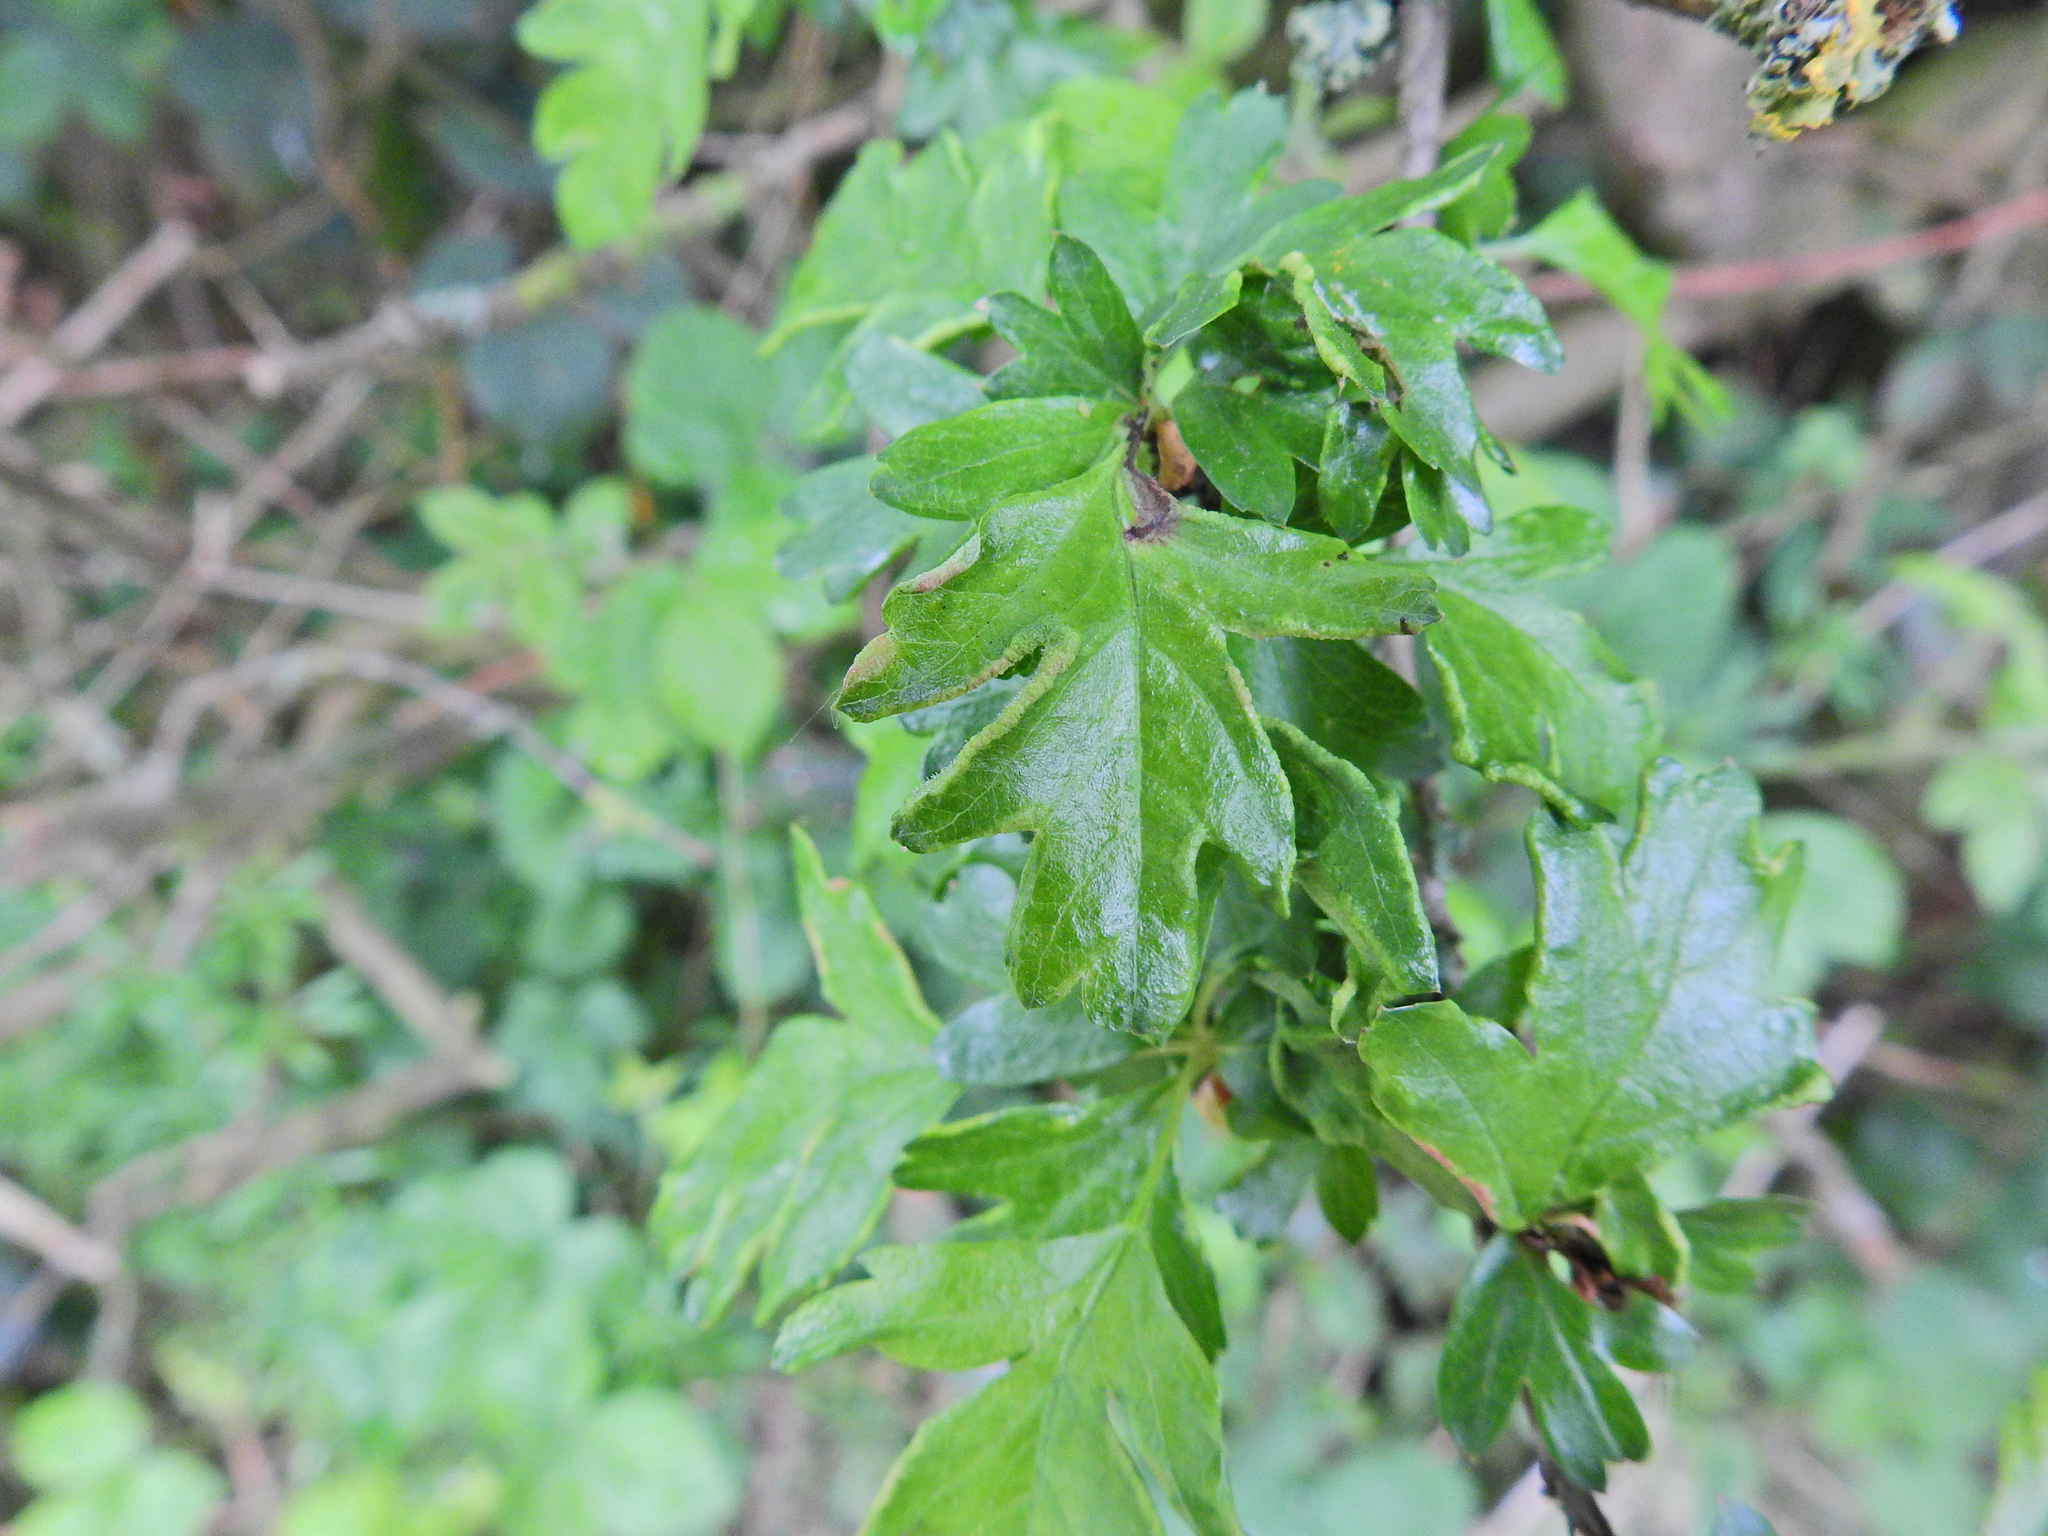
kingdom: Animalia
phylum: Arthropoda
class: Arachnida
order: Trombidiformes
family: Eriophyidae
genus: Phyllocoptes
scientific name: Phyllocoptes goniothorax
